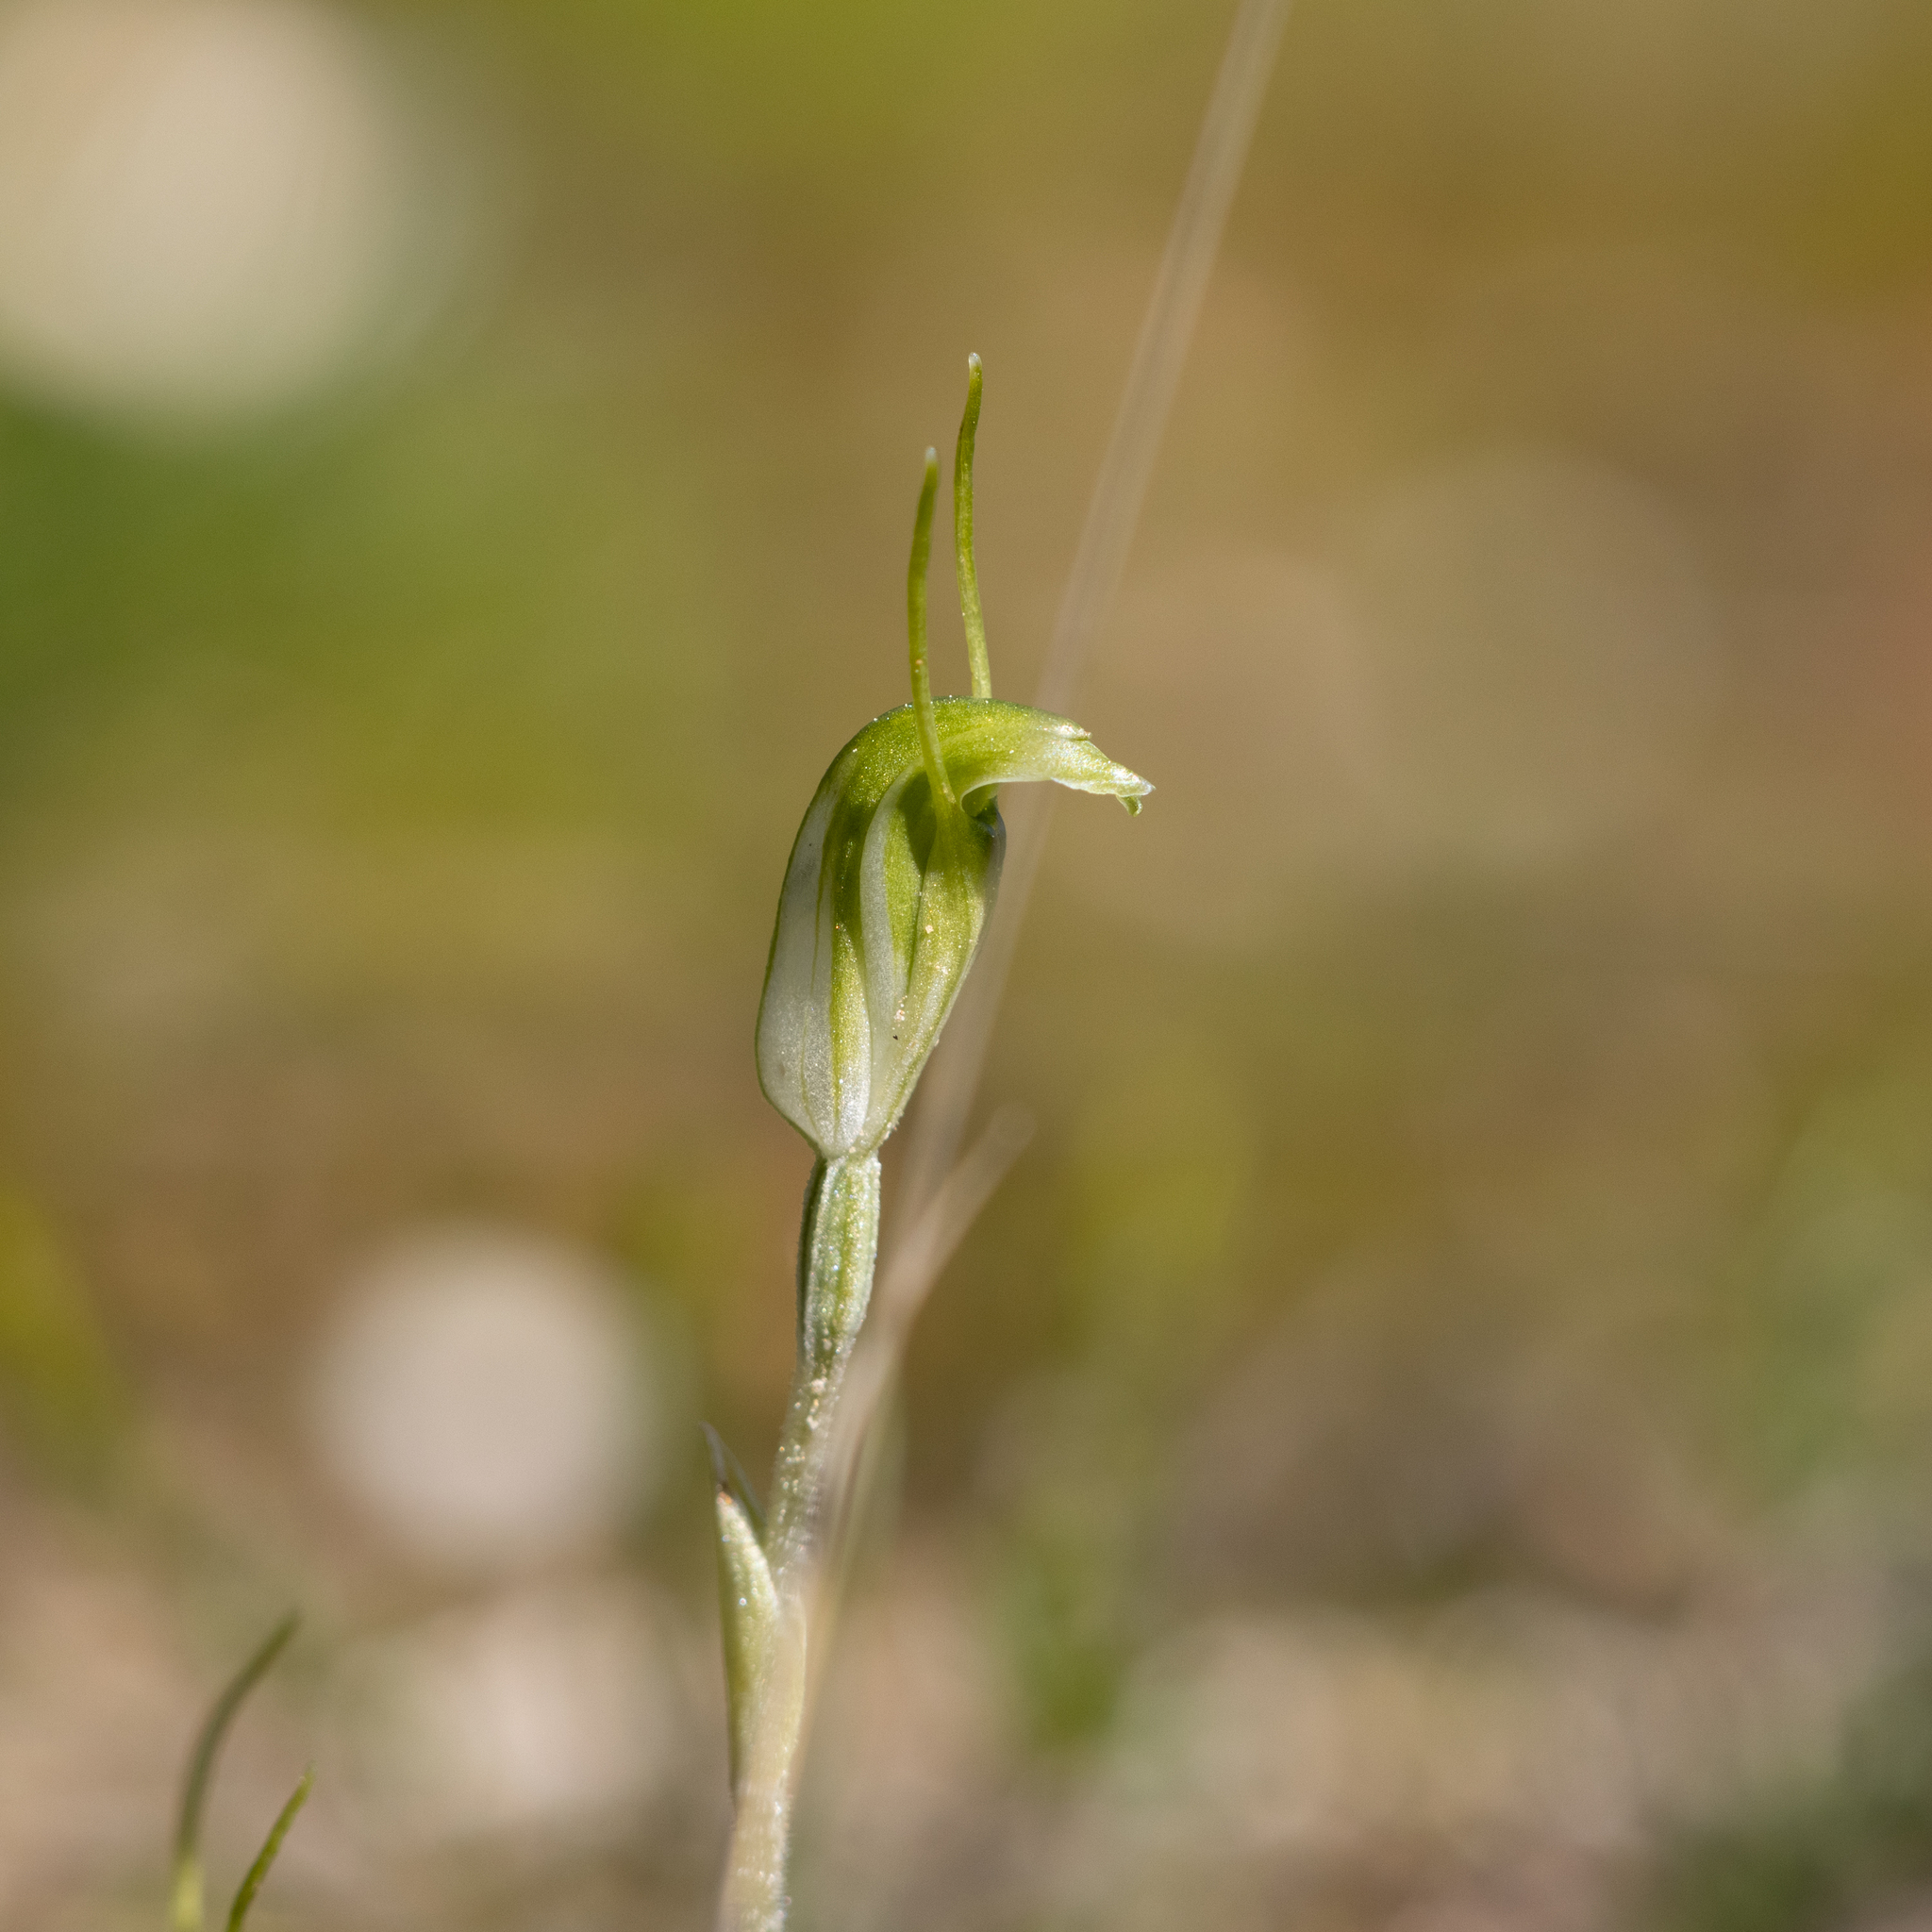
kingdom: Plantae
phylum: Tracheophyta
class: Liliopsida
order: Asparagales
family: Orchidaceae
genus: Pterostylis
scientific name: Pterostylis nana
